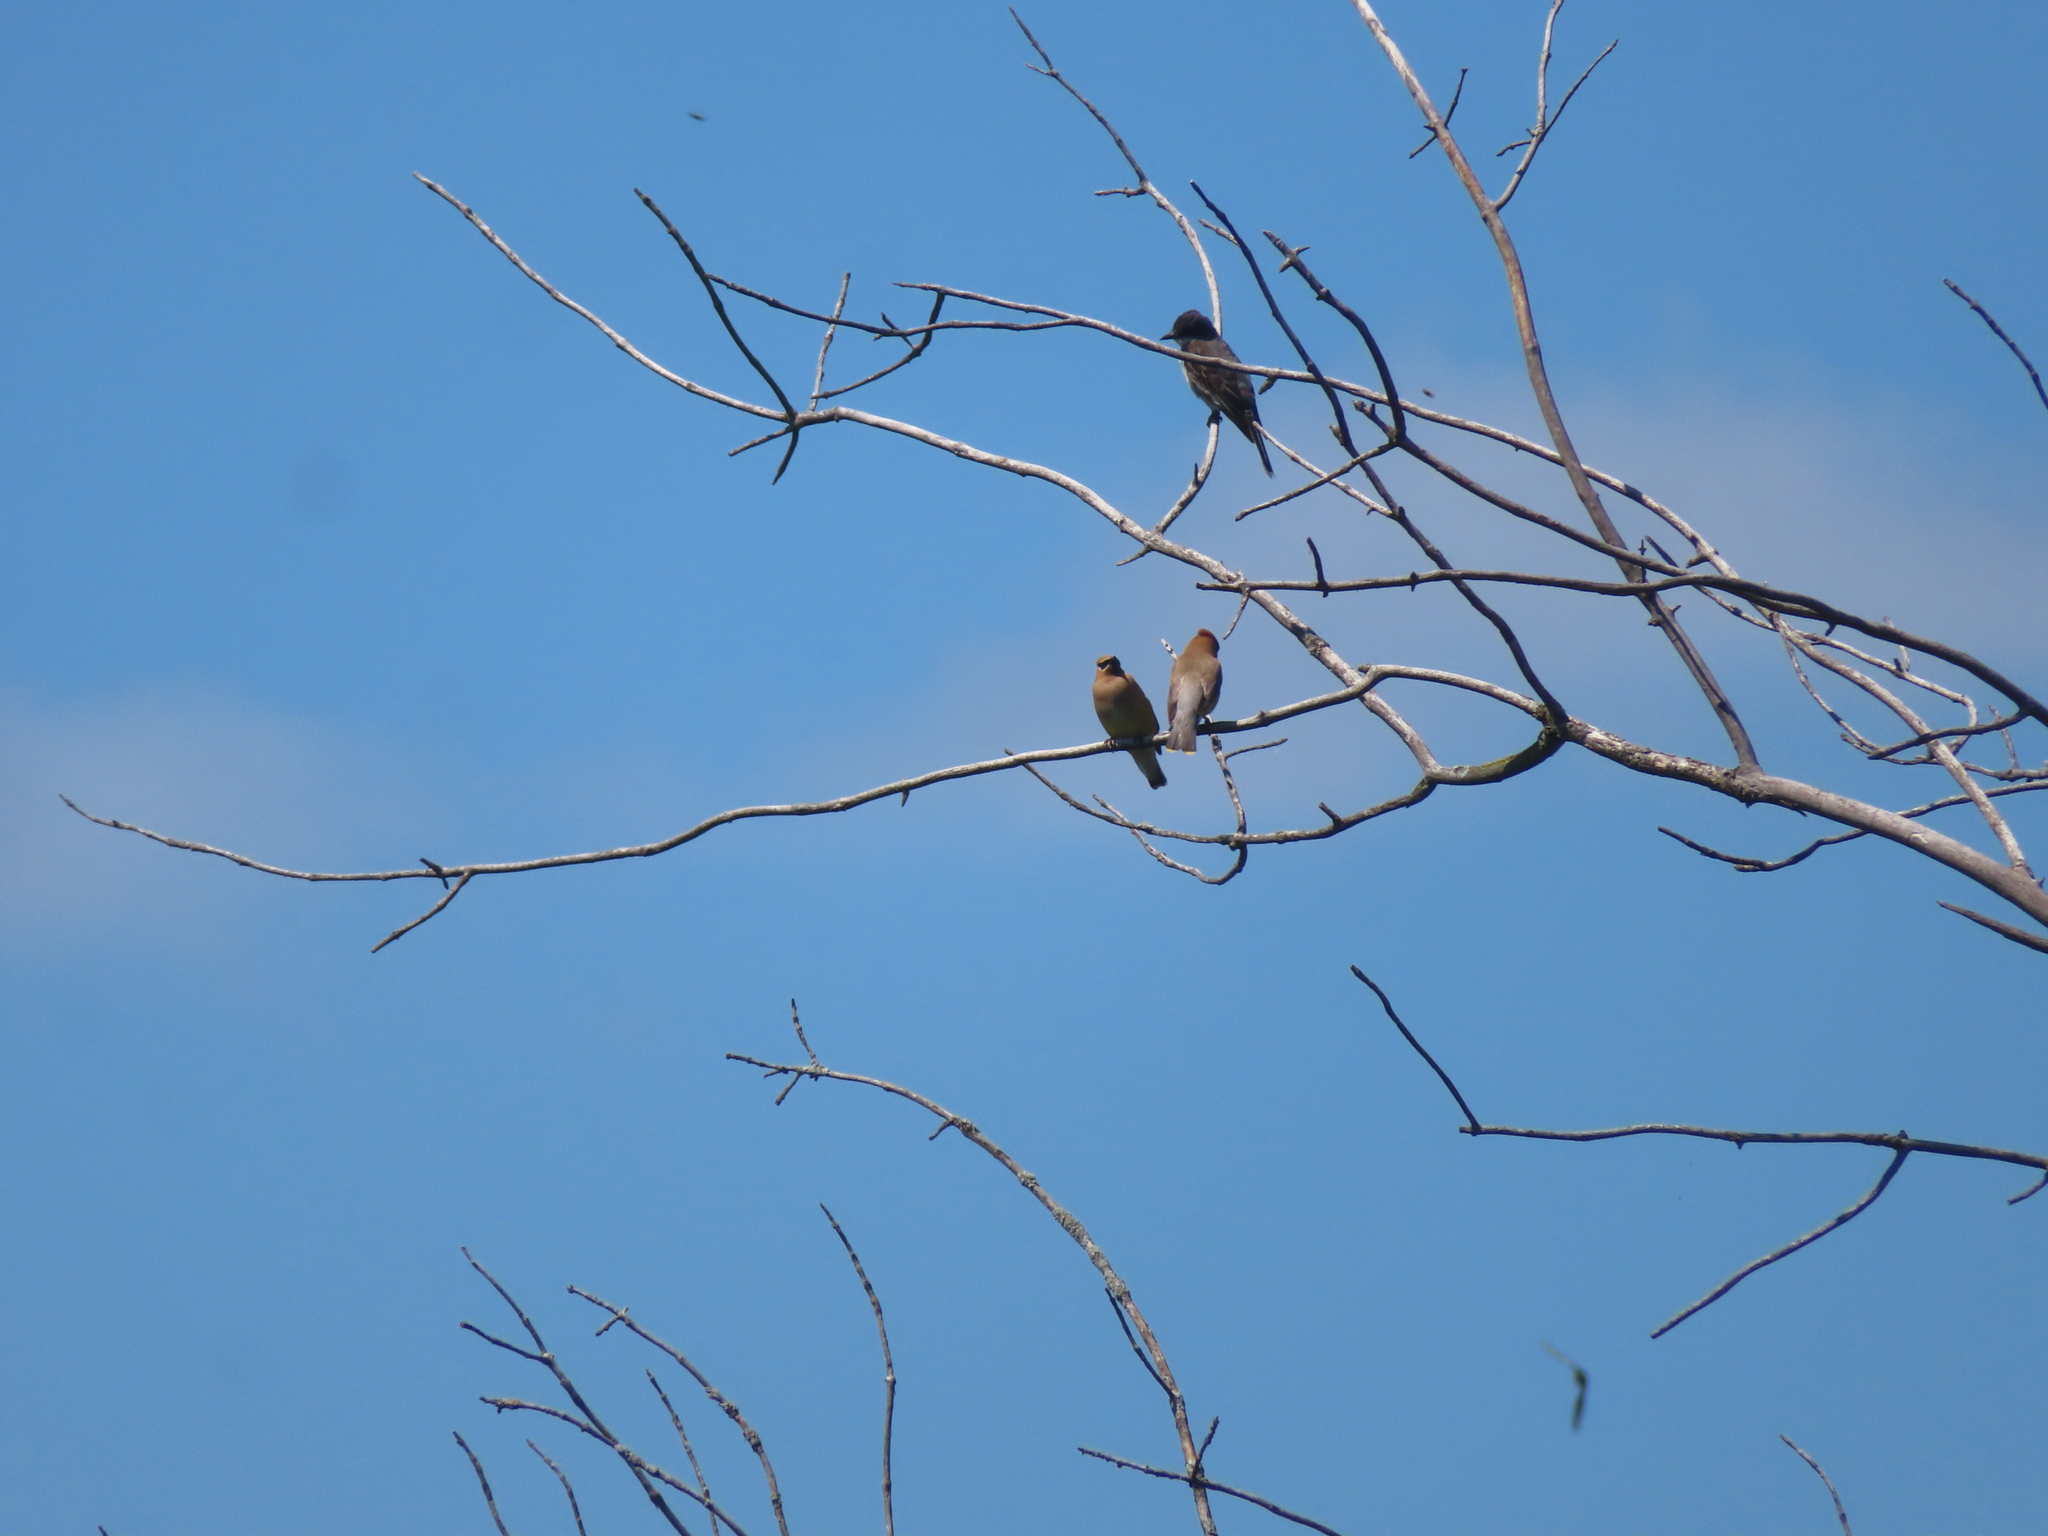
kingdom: Animalia
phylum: Chordata
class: Aves
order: Passeriformes
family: Bombycillidae
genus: Bombycilla
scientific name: Bombycilla cedrorum
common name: Cedar waxwing
